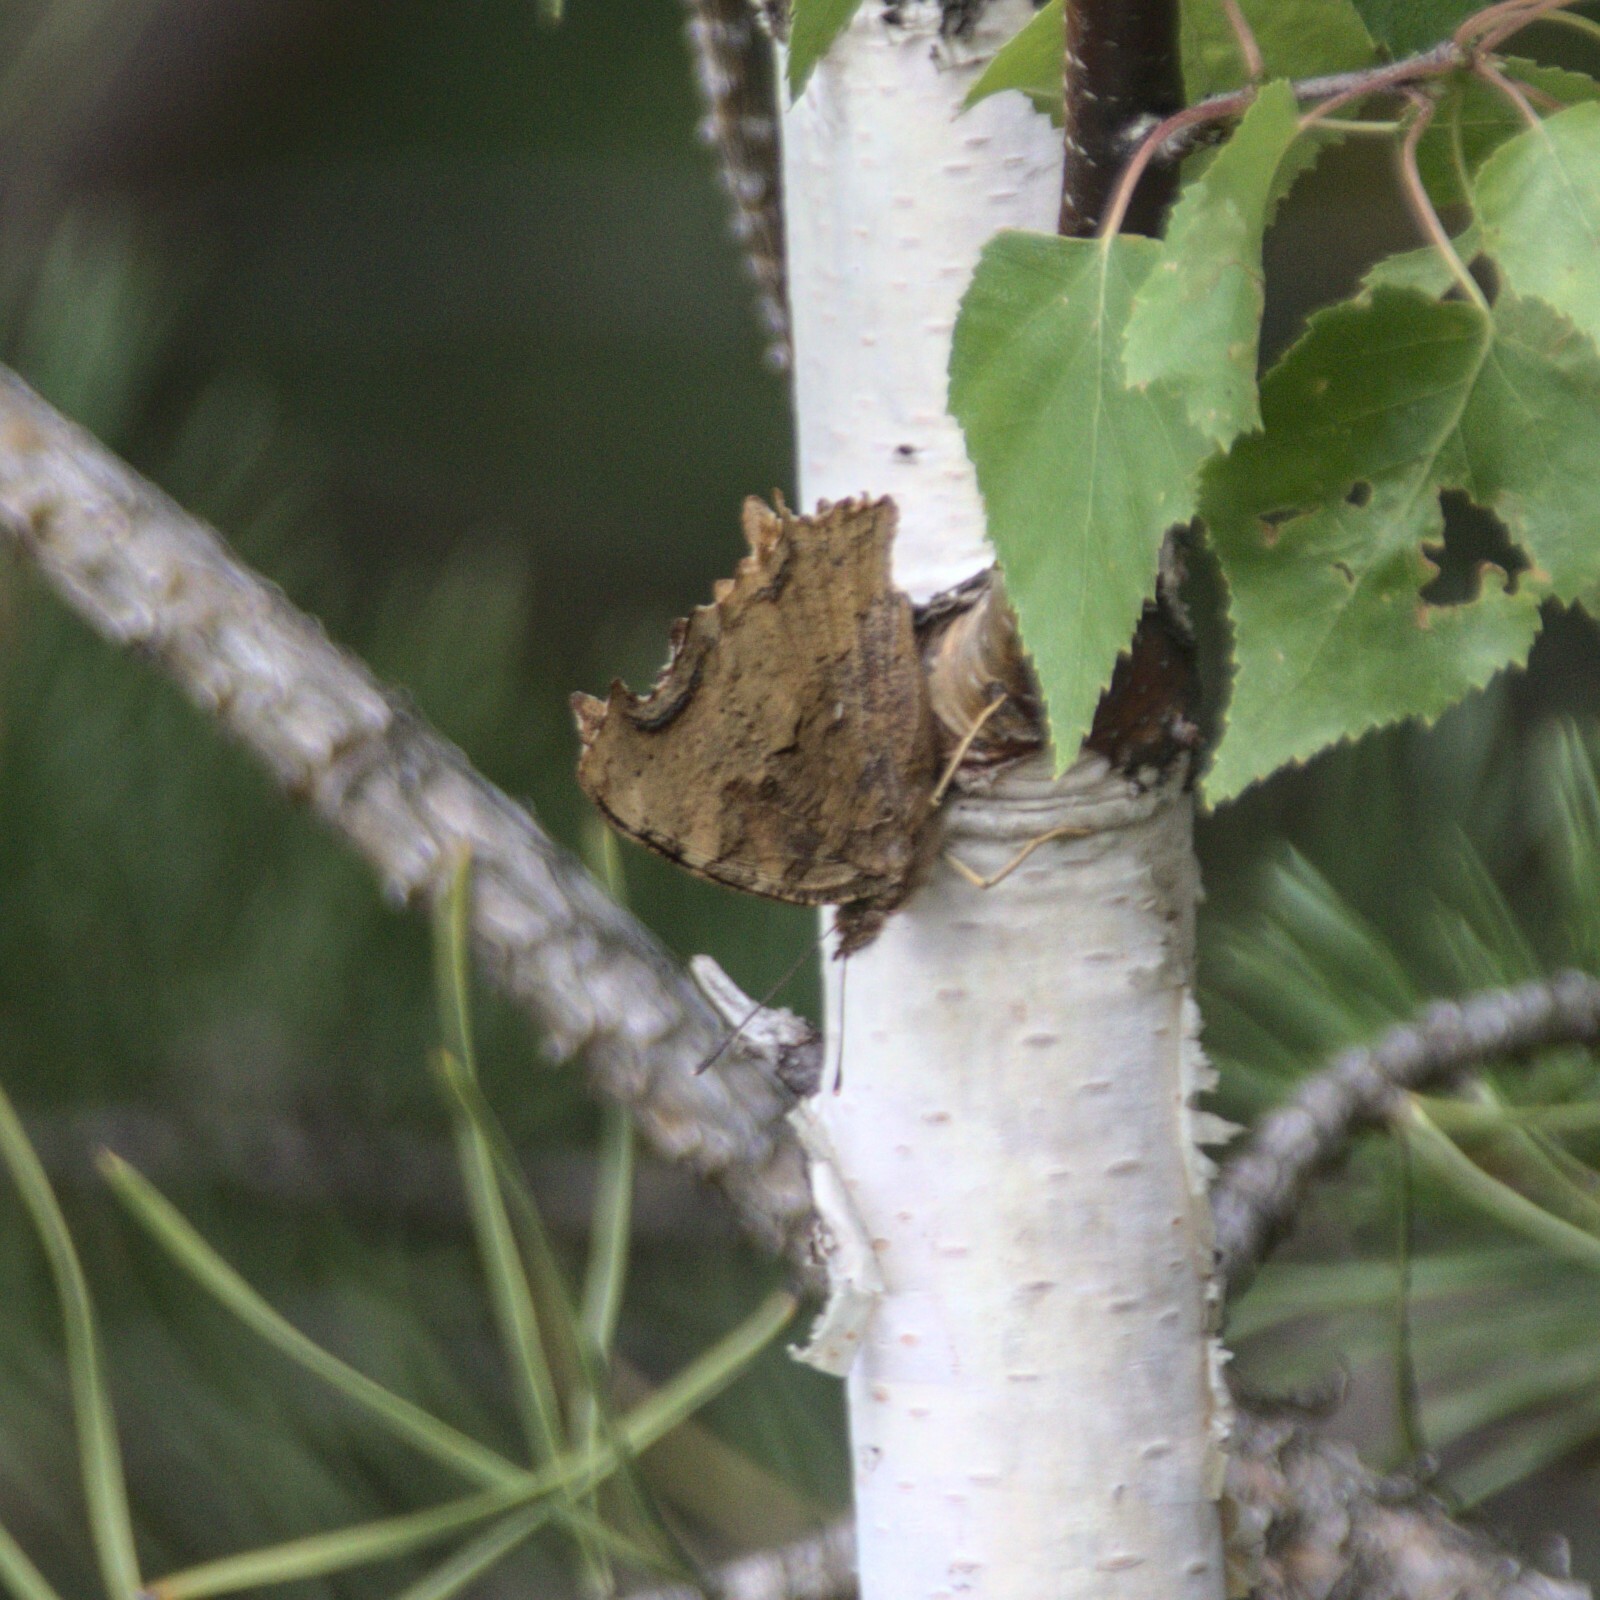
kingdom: Animalia
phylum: Arthropoda
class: Insecta
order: Lepidoptera
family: Nymphalidae
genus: Polygonia
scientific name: Polygonia vaualbum
